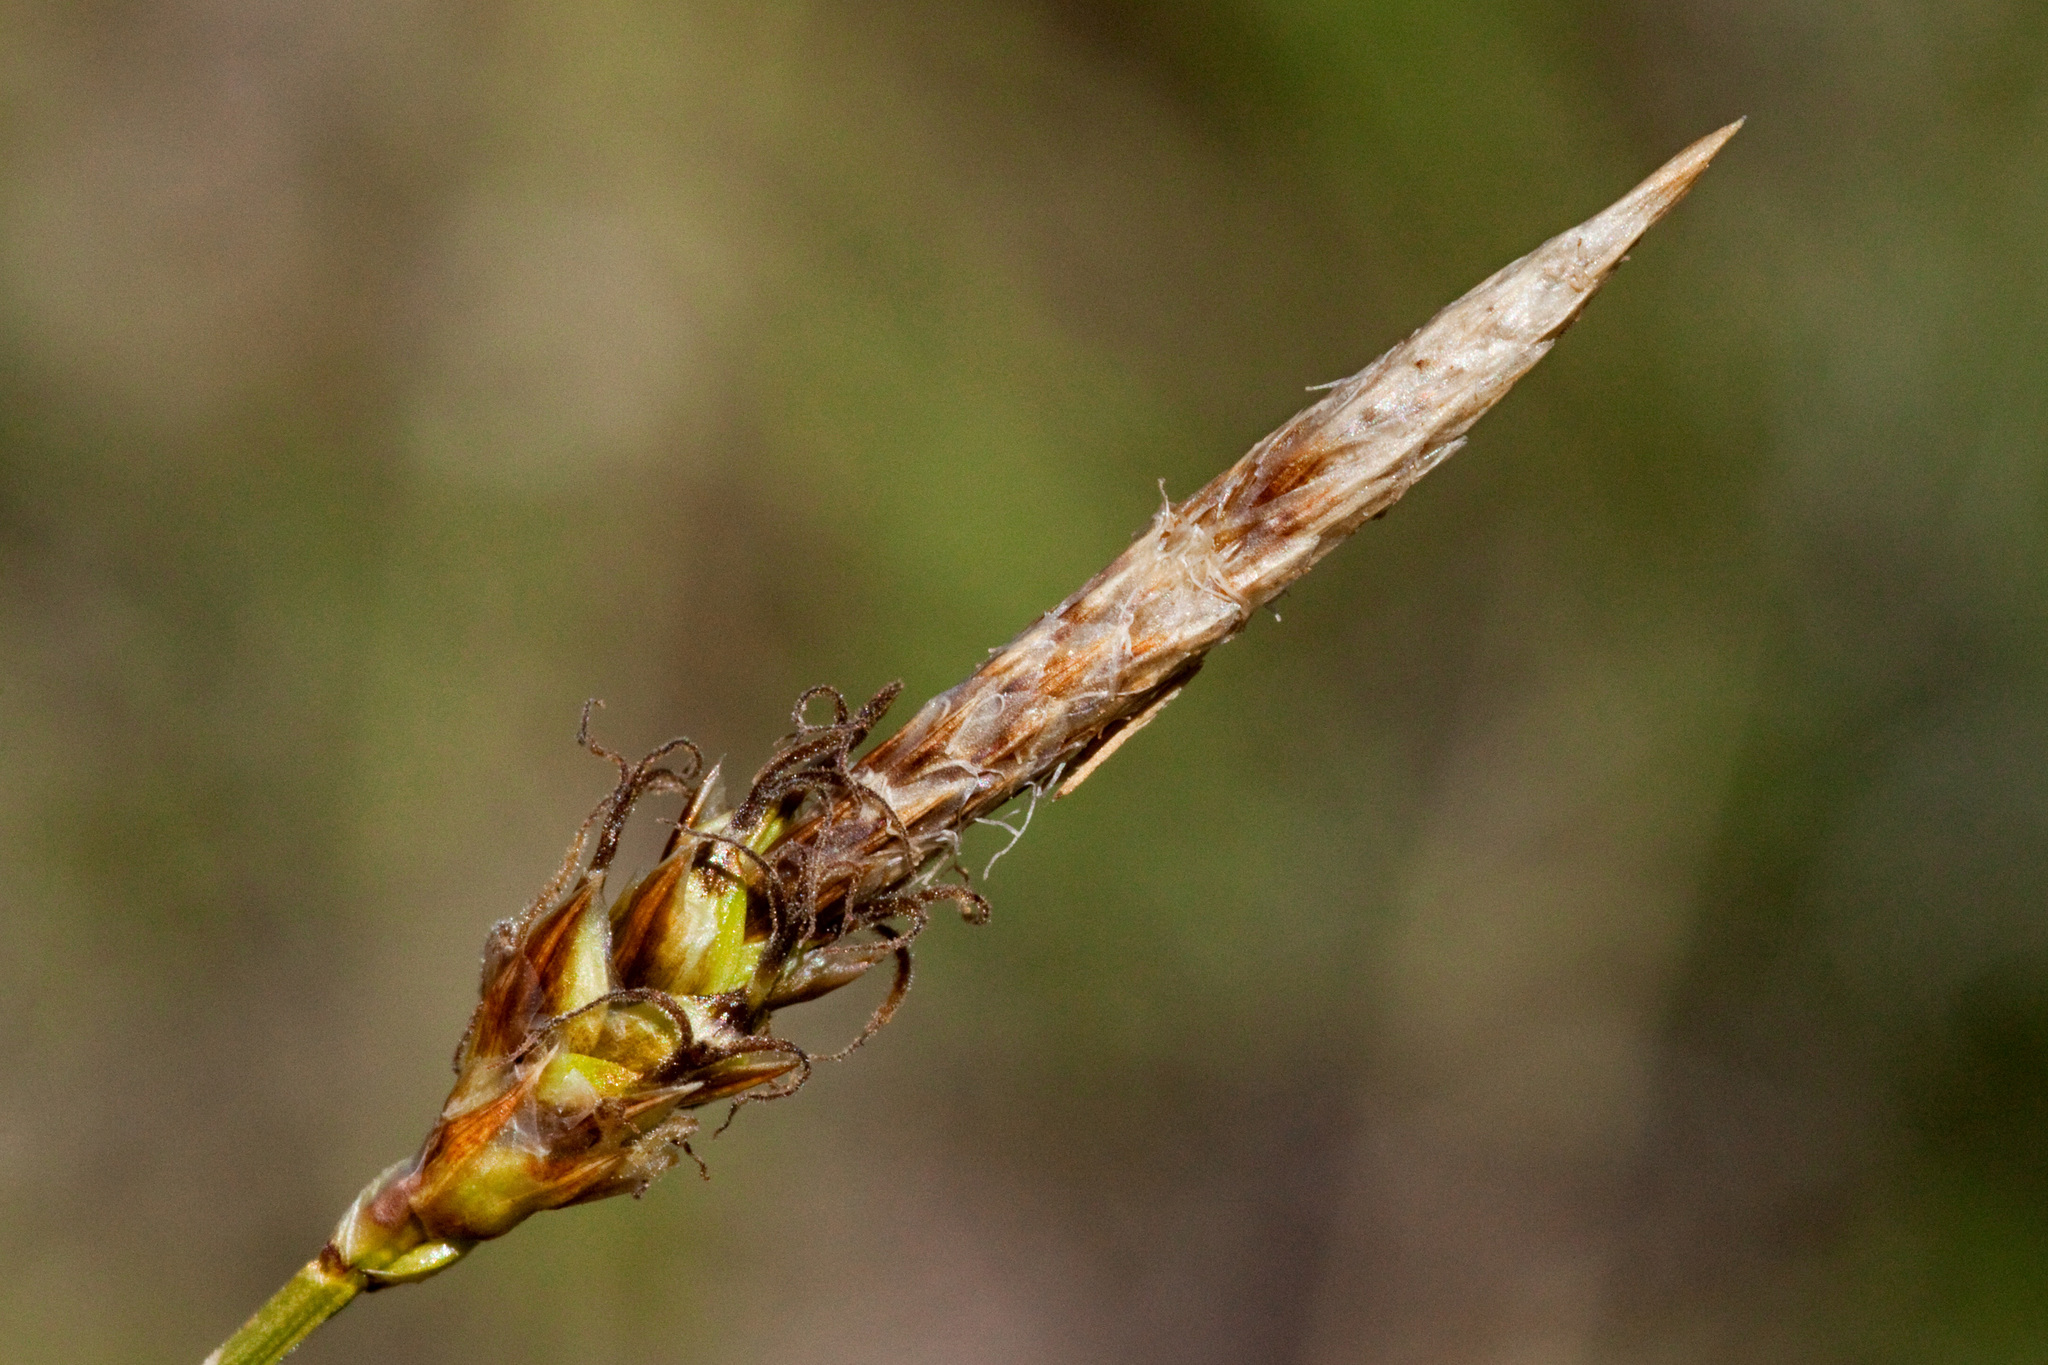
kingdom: Plantae
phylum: Tracheophyta
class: Liliopsida
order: Poales
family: Cyperaceae
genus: Carex
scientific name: Carex oreocharis
